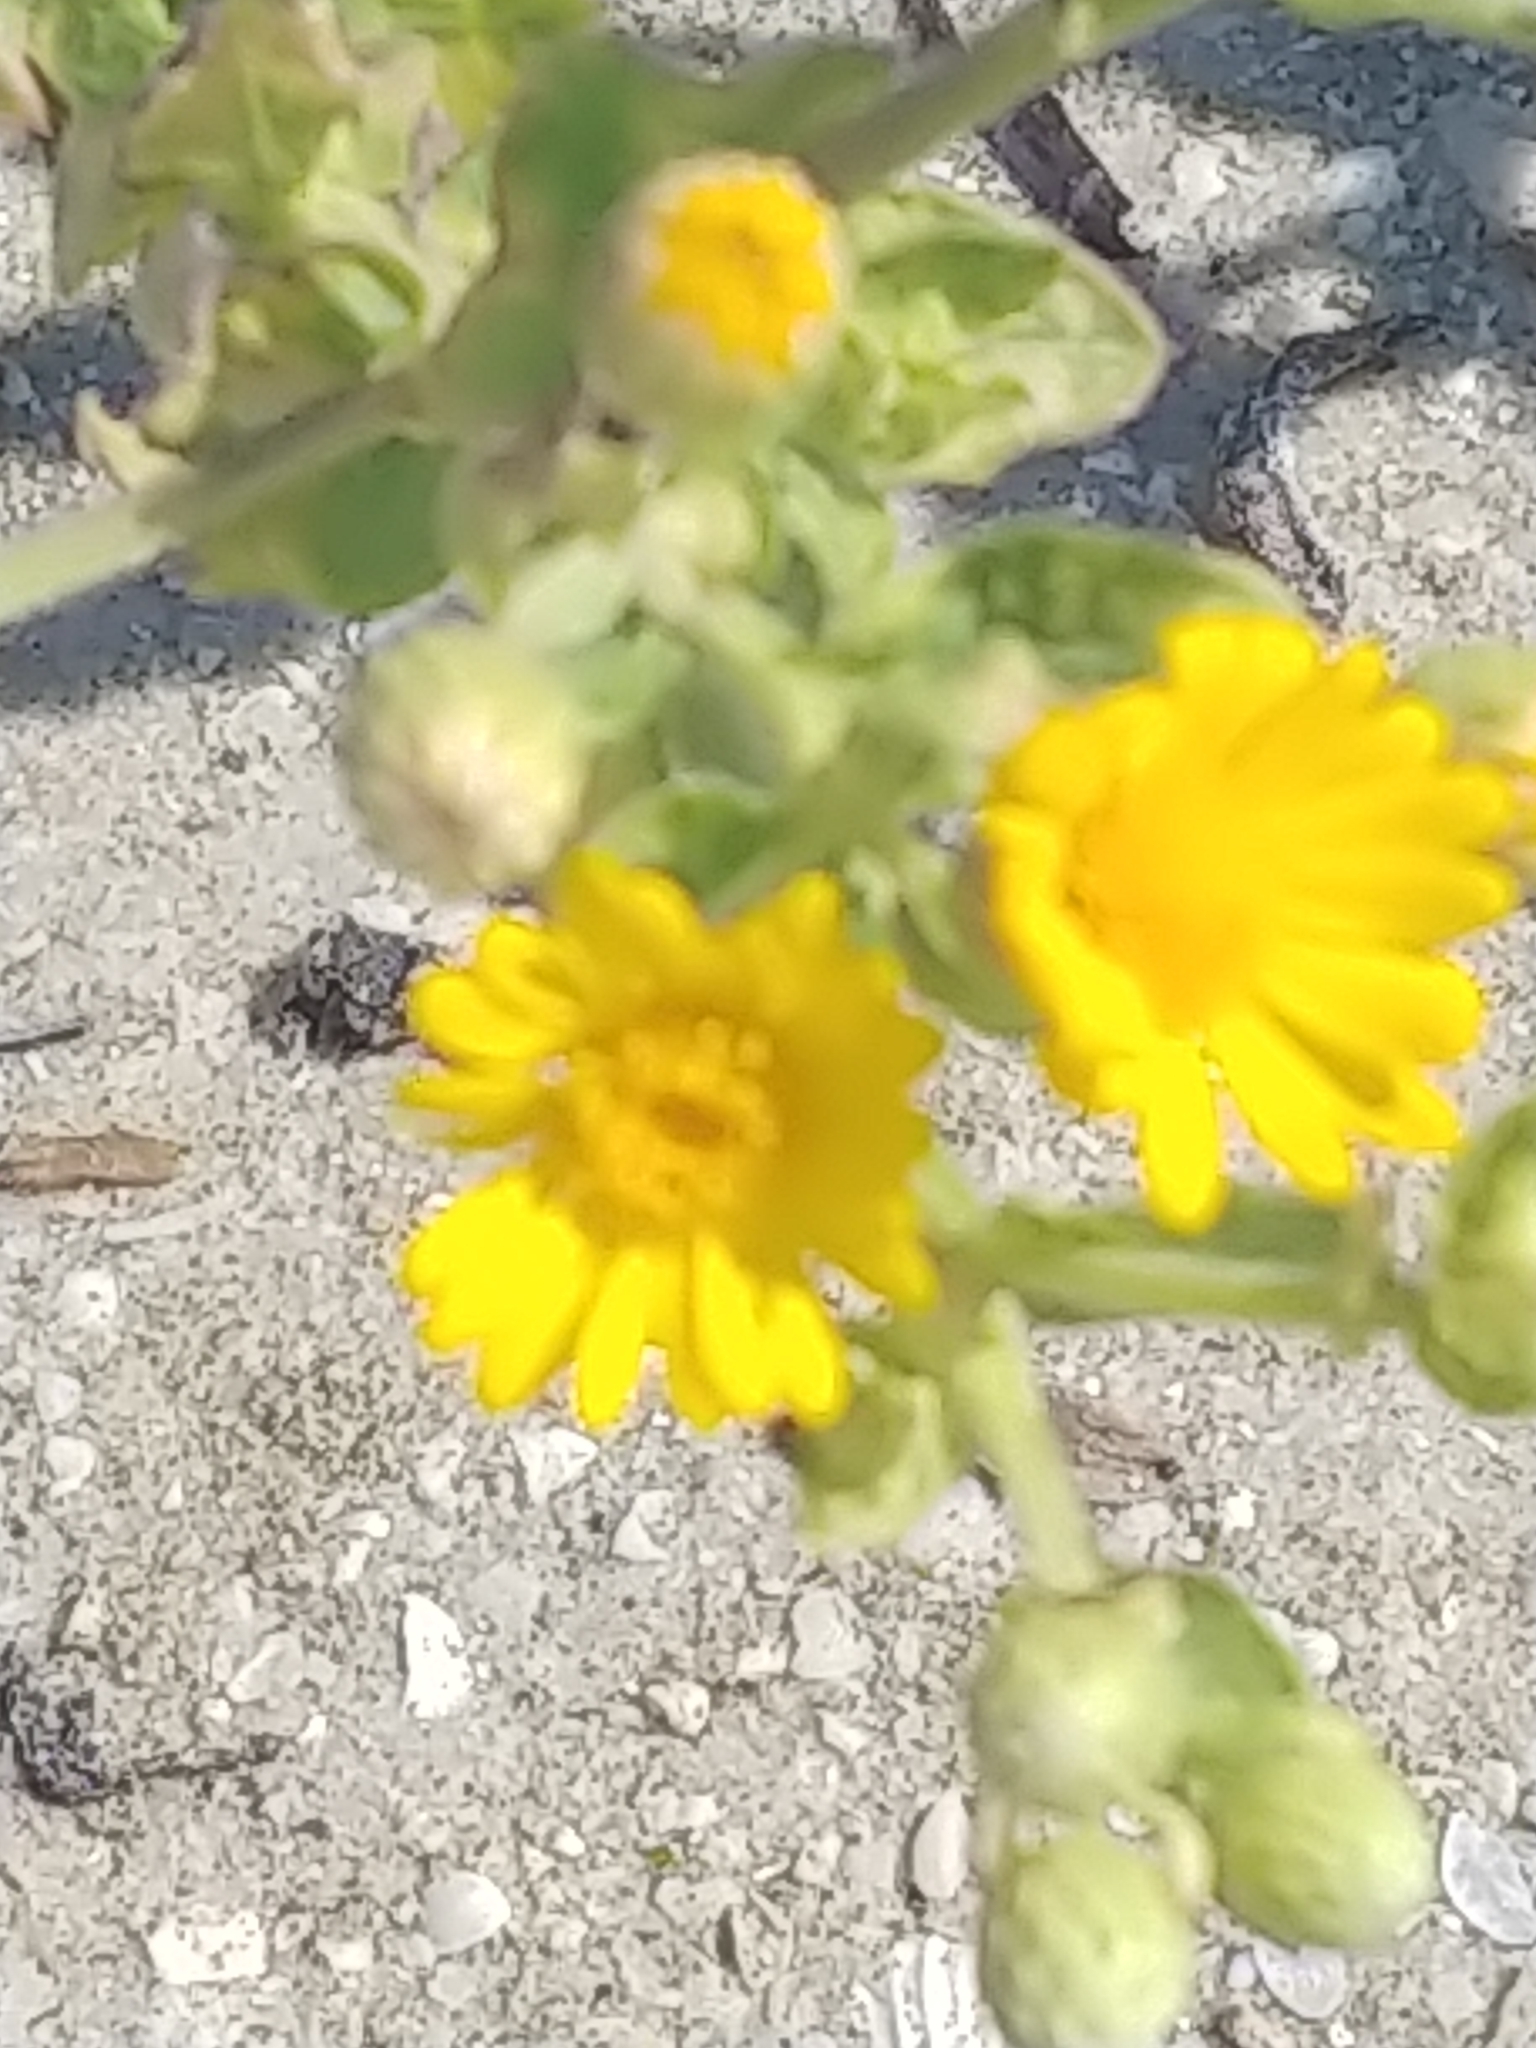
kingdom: Plantae
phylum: Tracheophyta
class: Magnoliopsida
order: Asterales
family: Asteraceae
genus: Heterotheca
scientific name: Heterotheca subaxillaris
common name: Camphorweed
